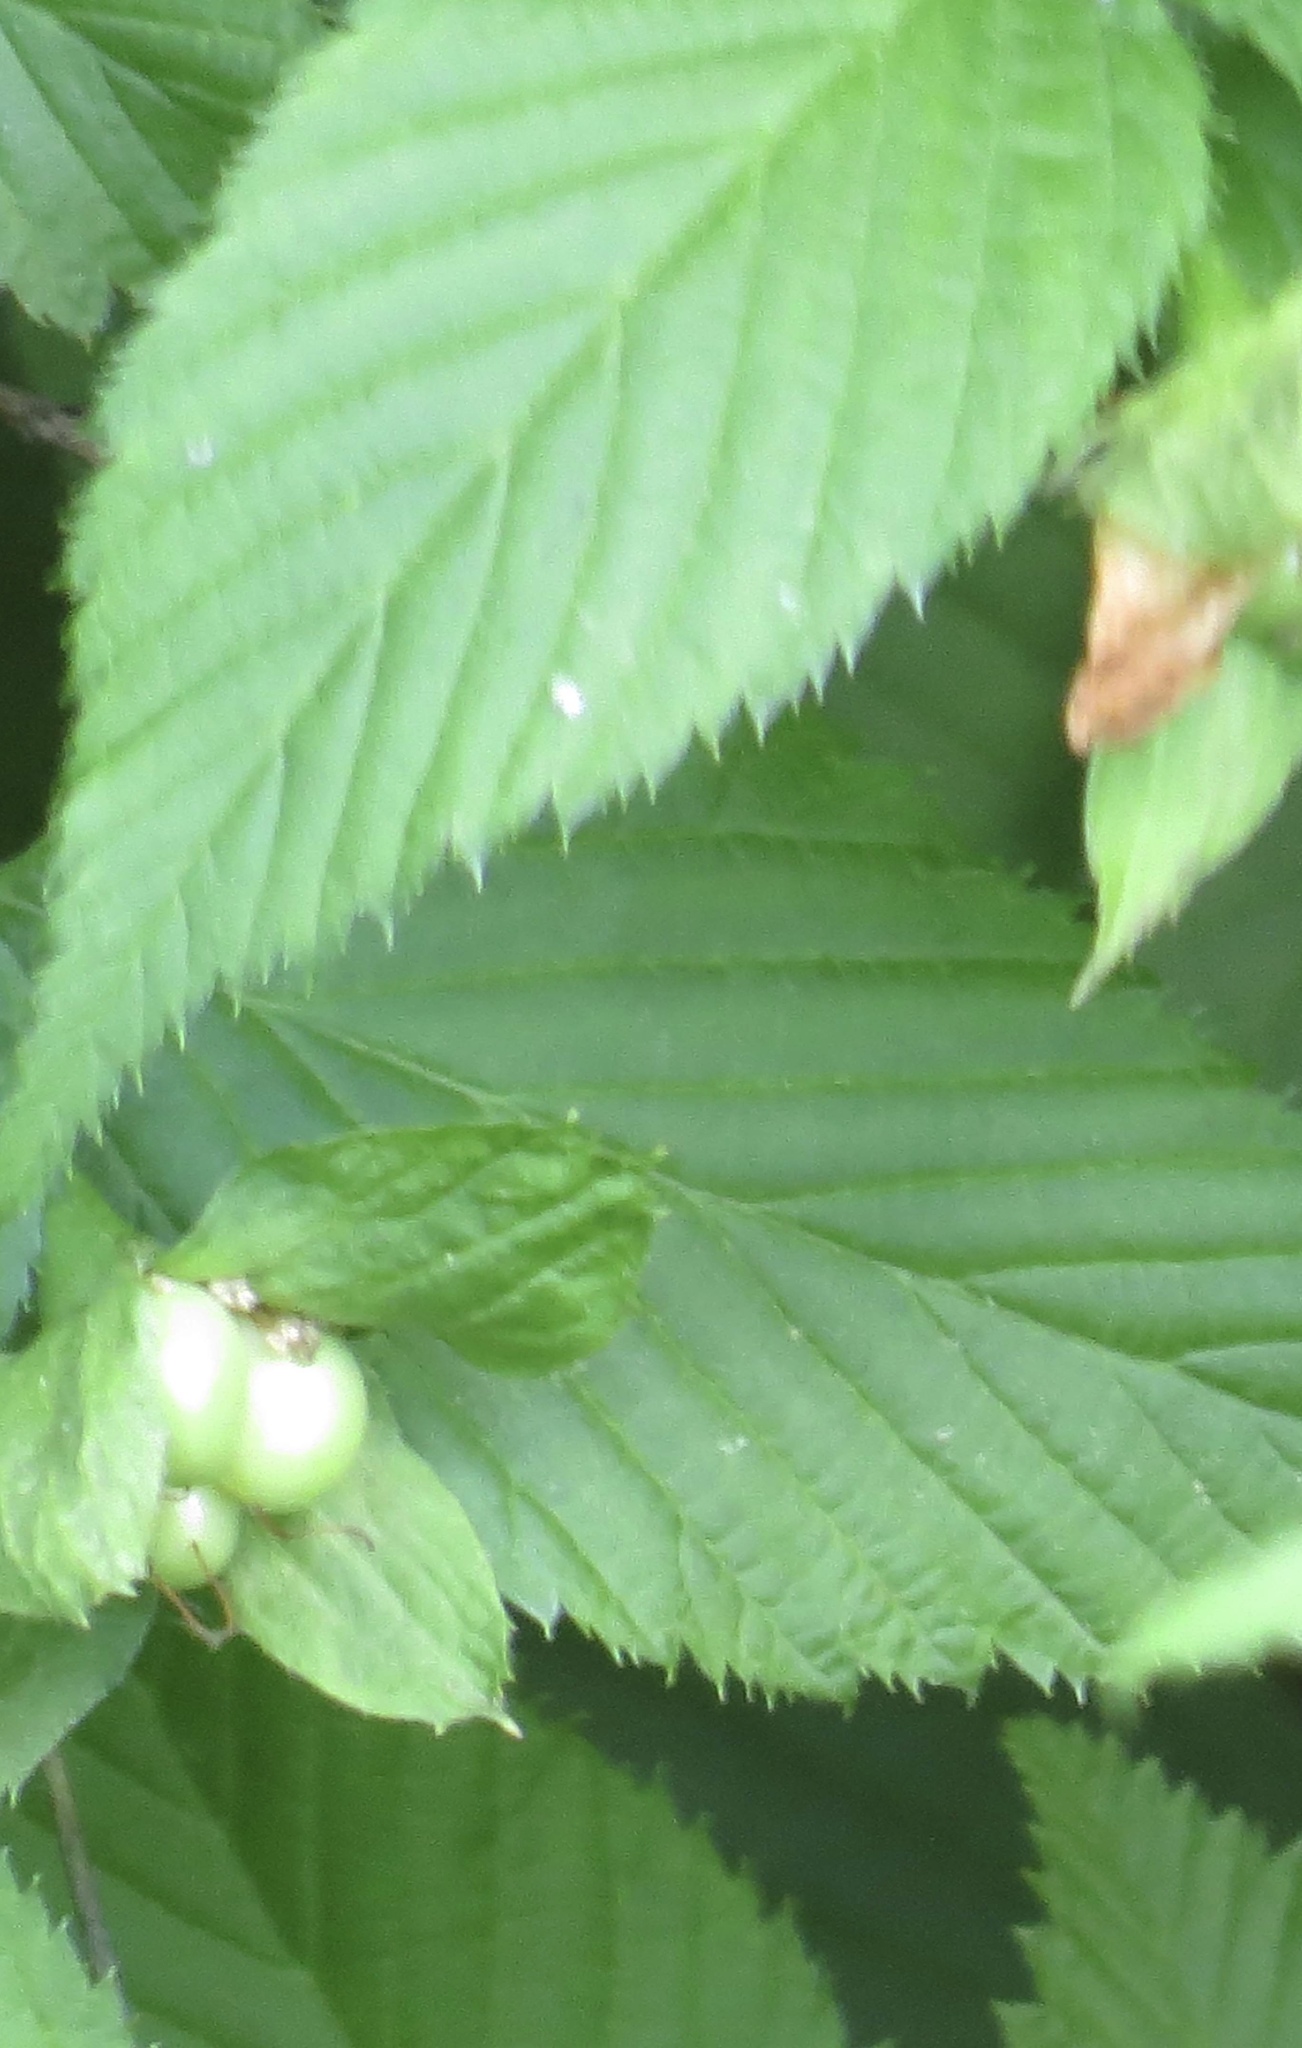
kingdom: Plantae
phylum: Tracheophyta
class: Magnoliopsida
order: Rosales
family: Rosaceae
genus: Rhodotypos
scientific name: Rhodotypos scandens
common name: Jetbead
